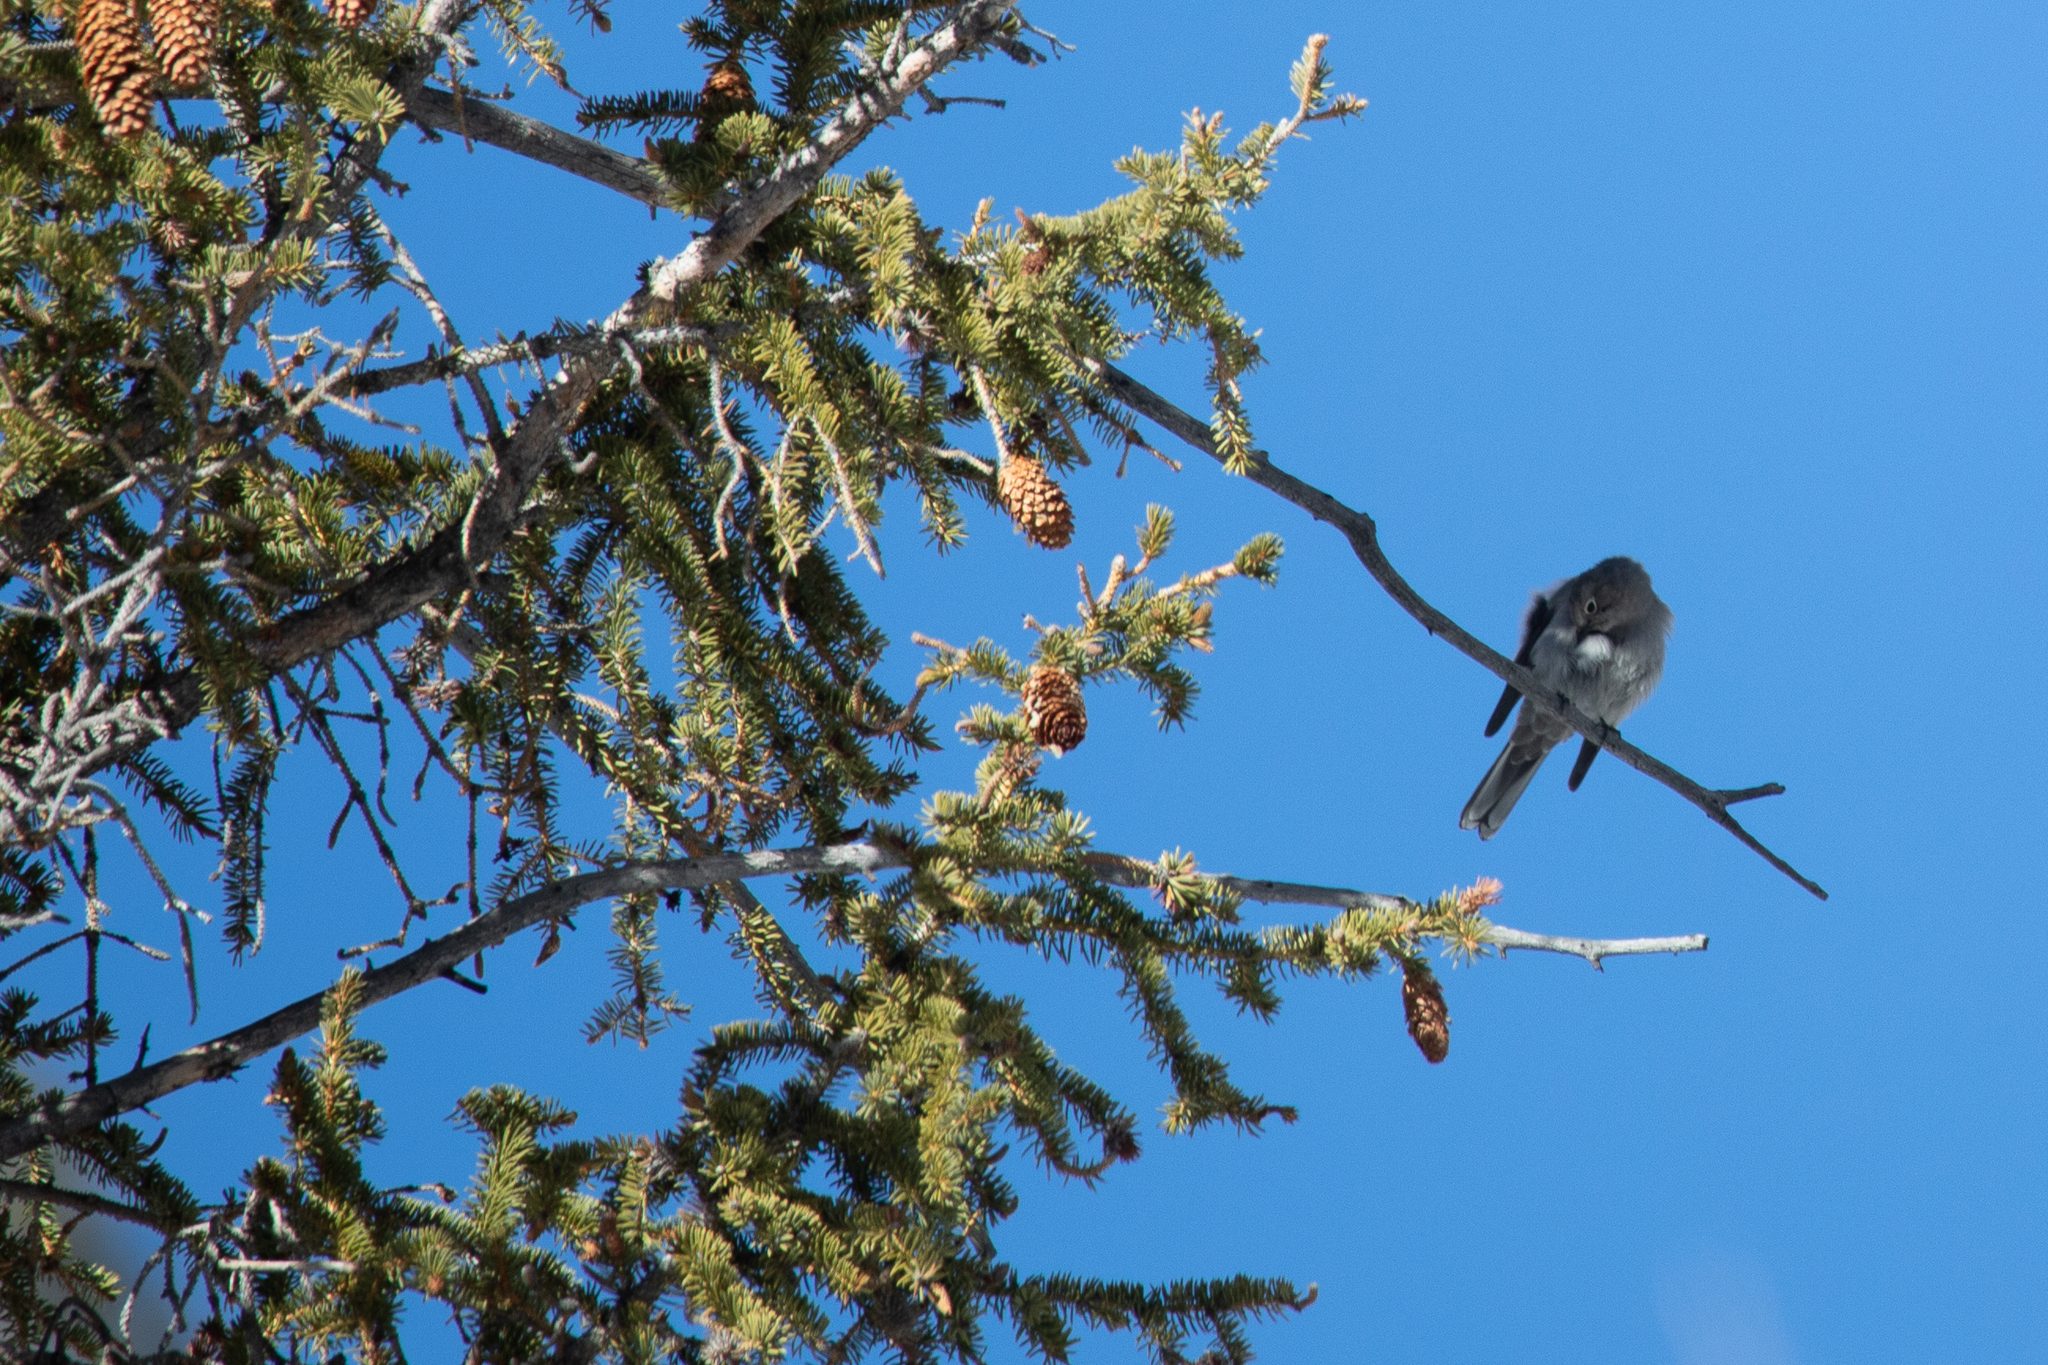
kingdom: Animalia
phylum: Chordata
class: Aves
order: Passeriformes
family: Turdidae
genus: Myadestes
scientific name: Myadestes townsendi
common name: Townsend's solitaire
